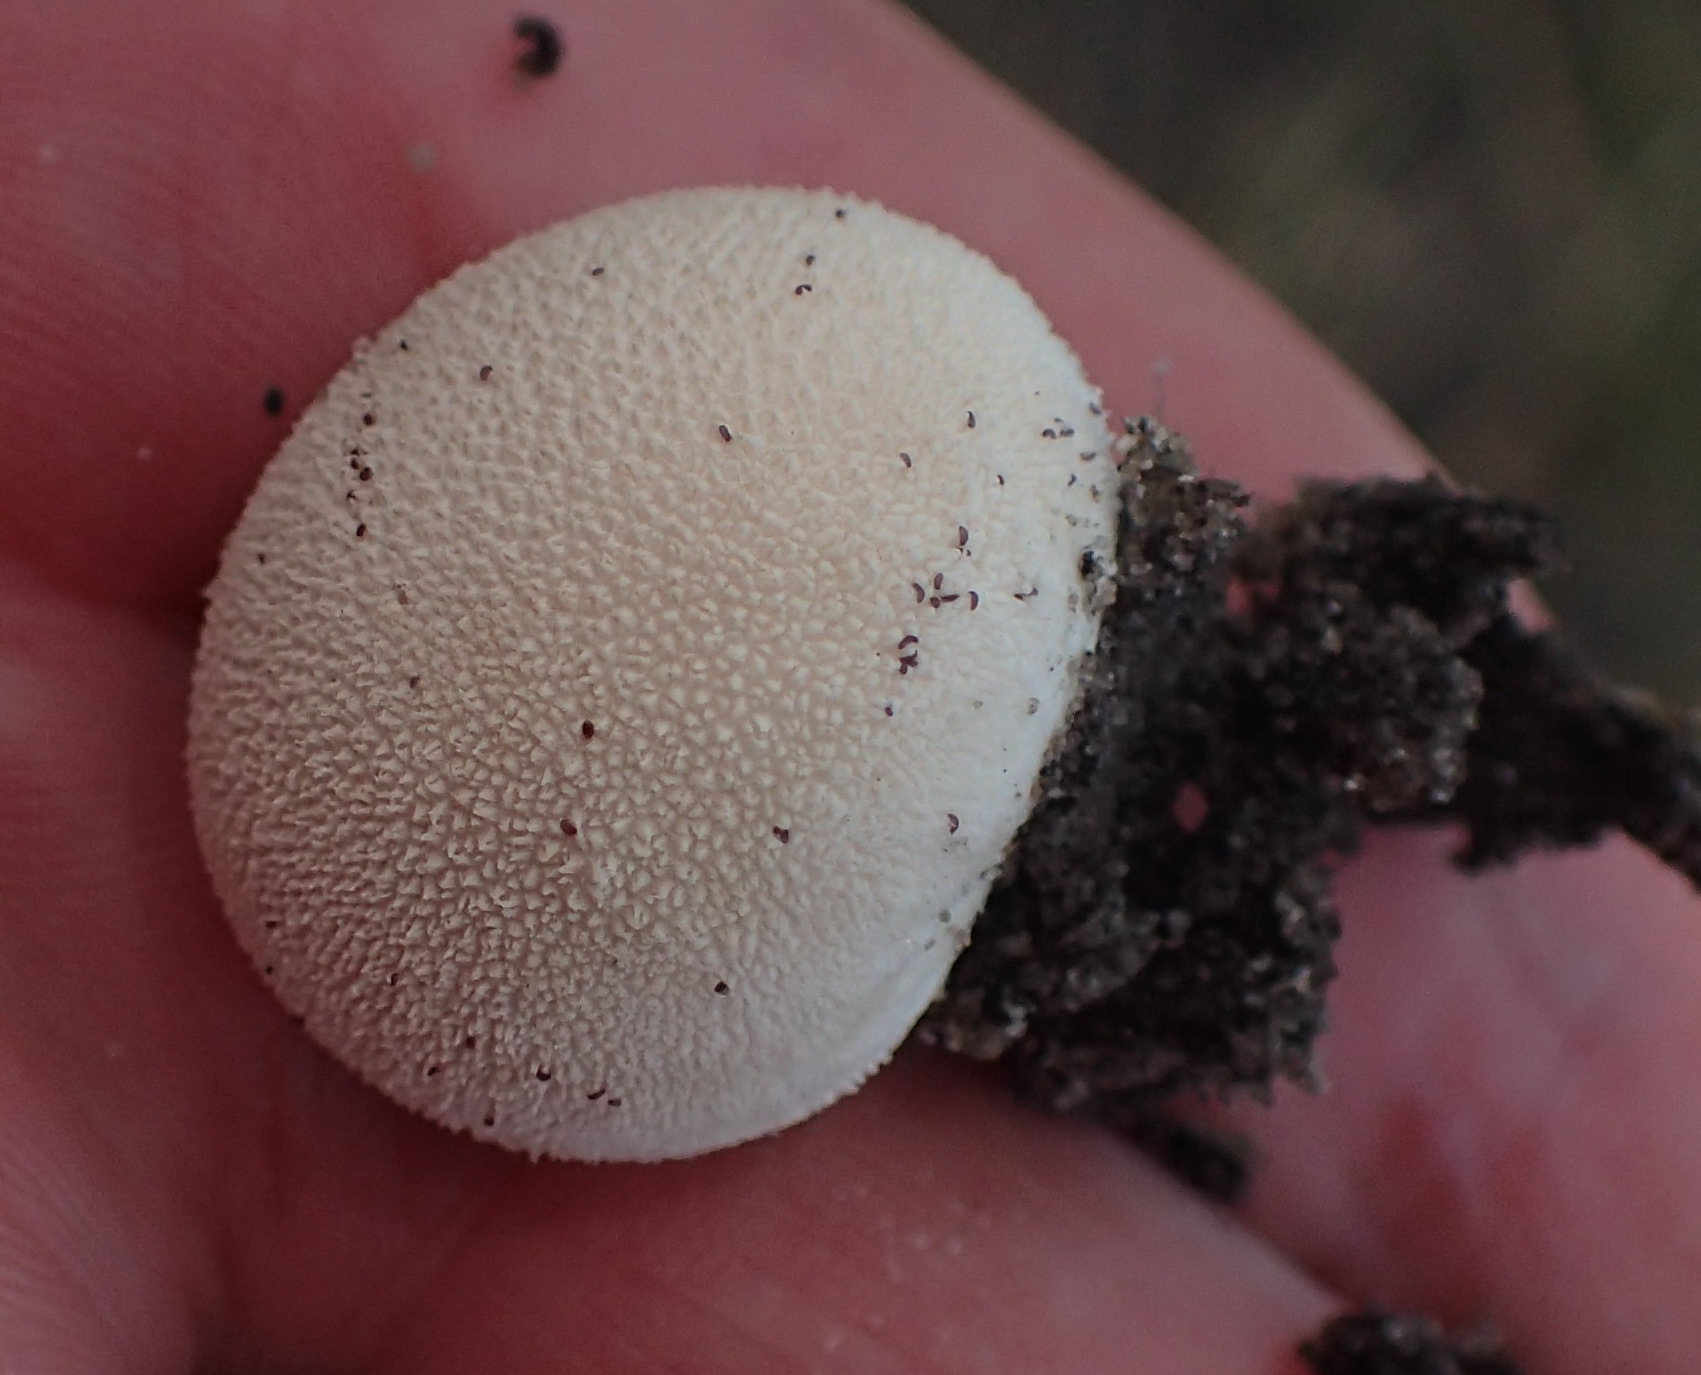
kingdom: Fungi
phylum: Basidiomycota
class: Agaricomycetes
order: Agaricales
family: Lycoperdaceae
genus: Lycoperdon
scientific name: Lycoperdon pratense
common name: Meadow puffball
